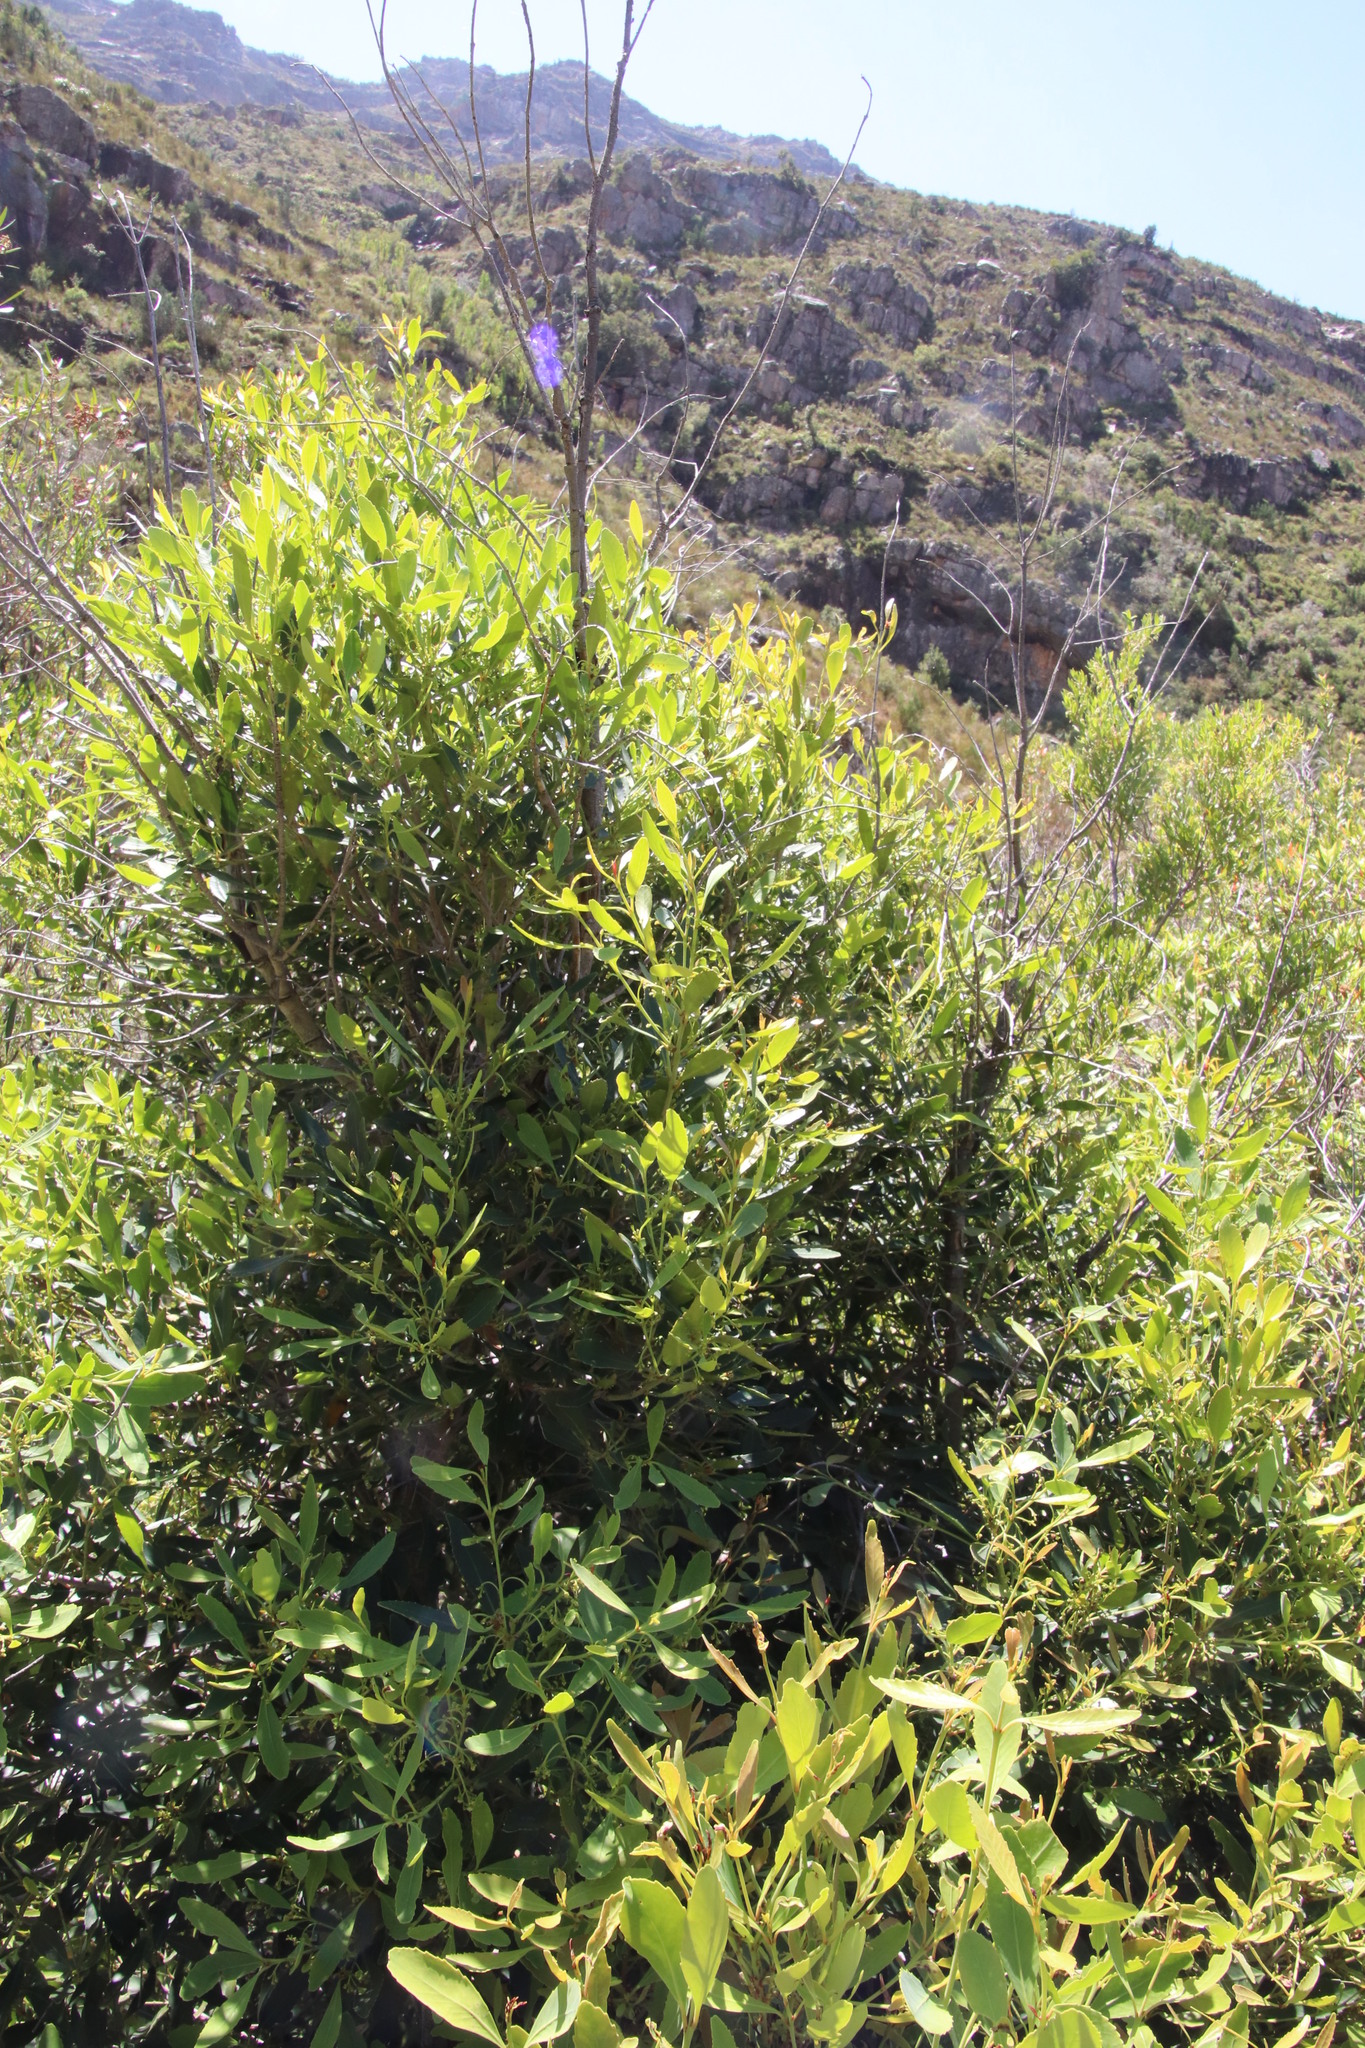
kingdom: Plantae
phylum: Tracheophyta
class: Magnoliopsida
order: Celastrales
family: Celastraceae
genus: Elaeodendron
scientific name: Elaeodendron schinoides
